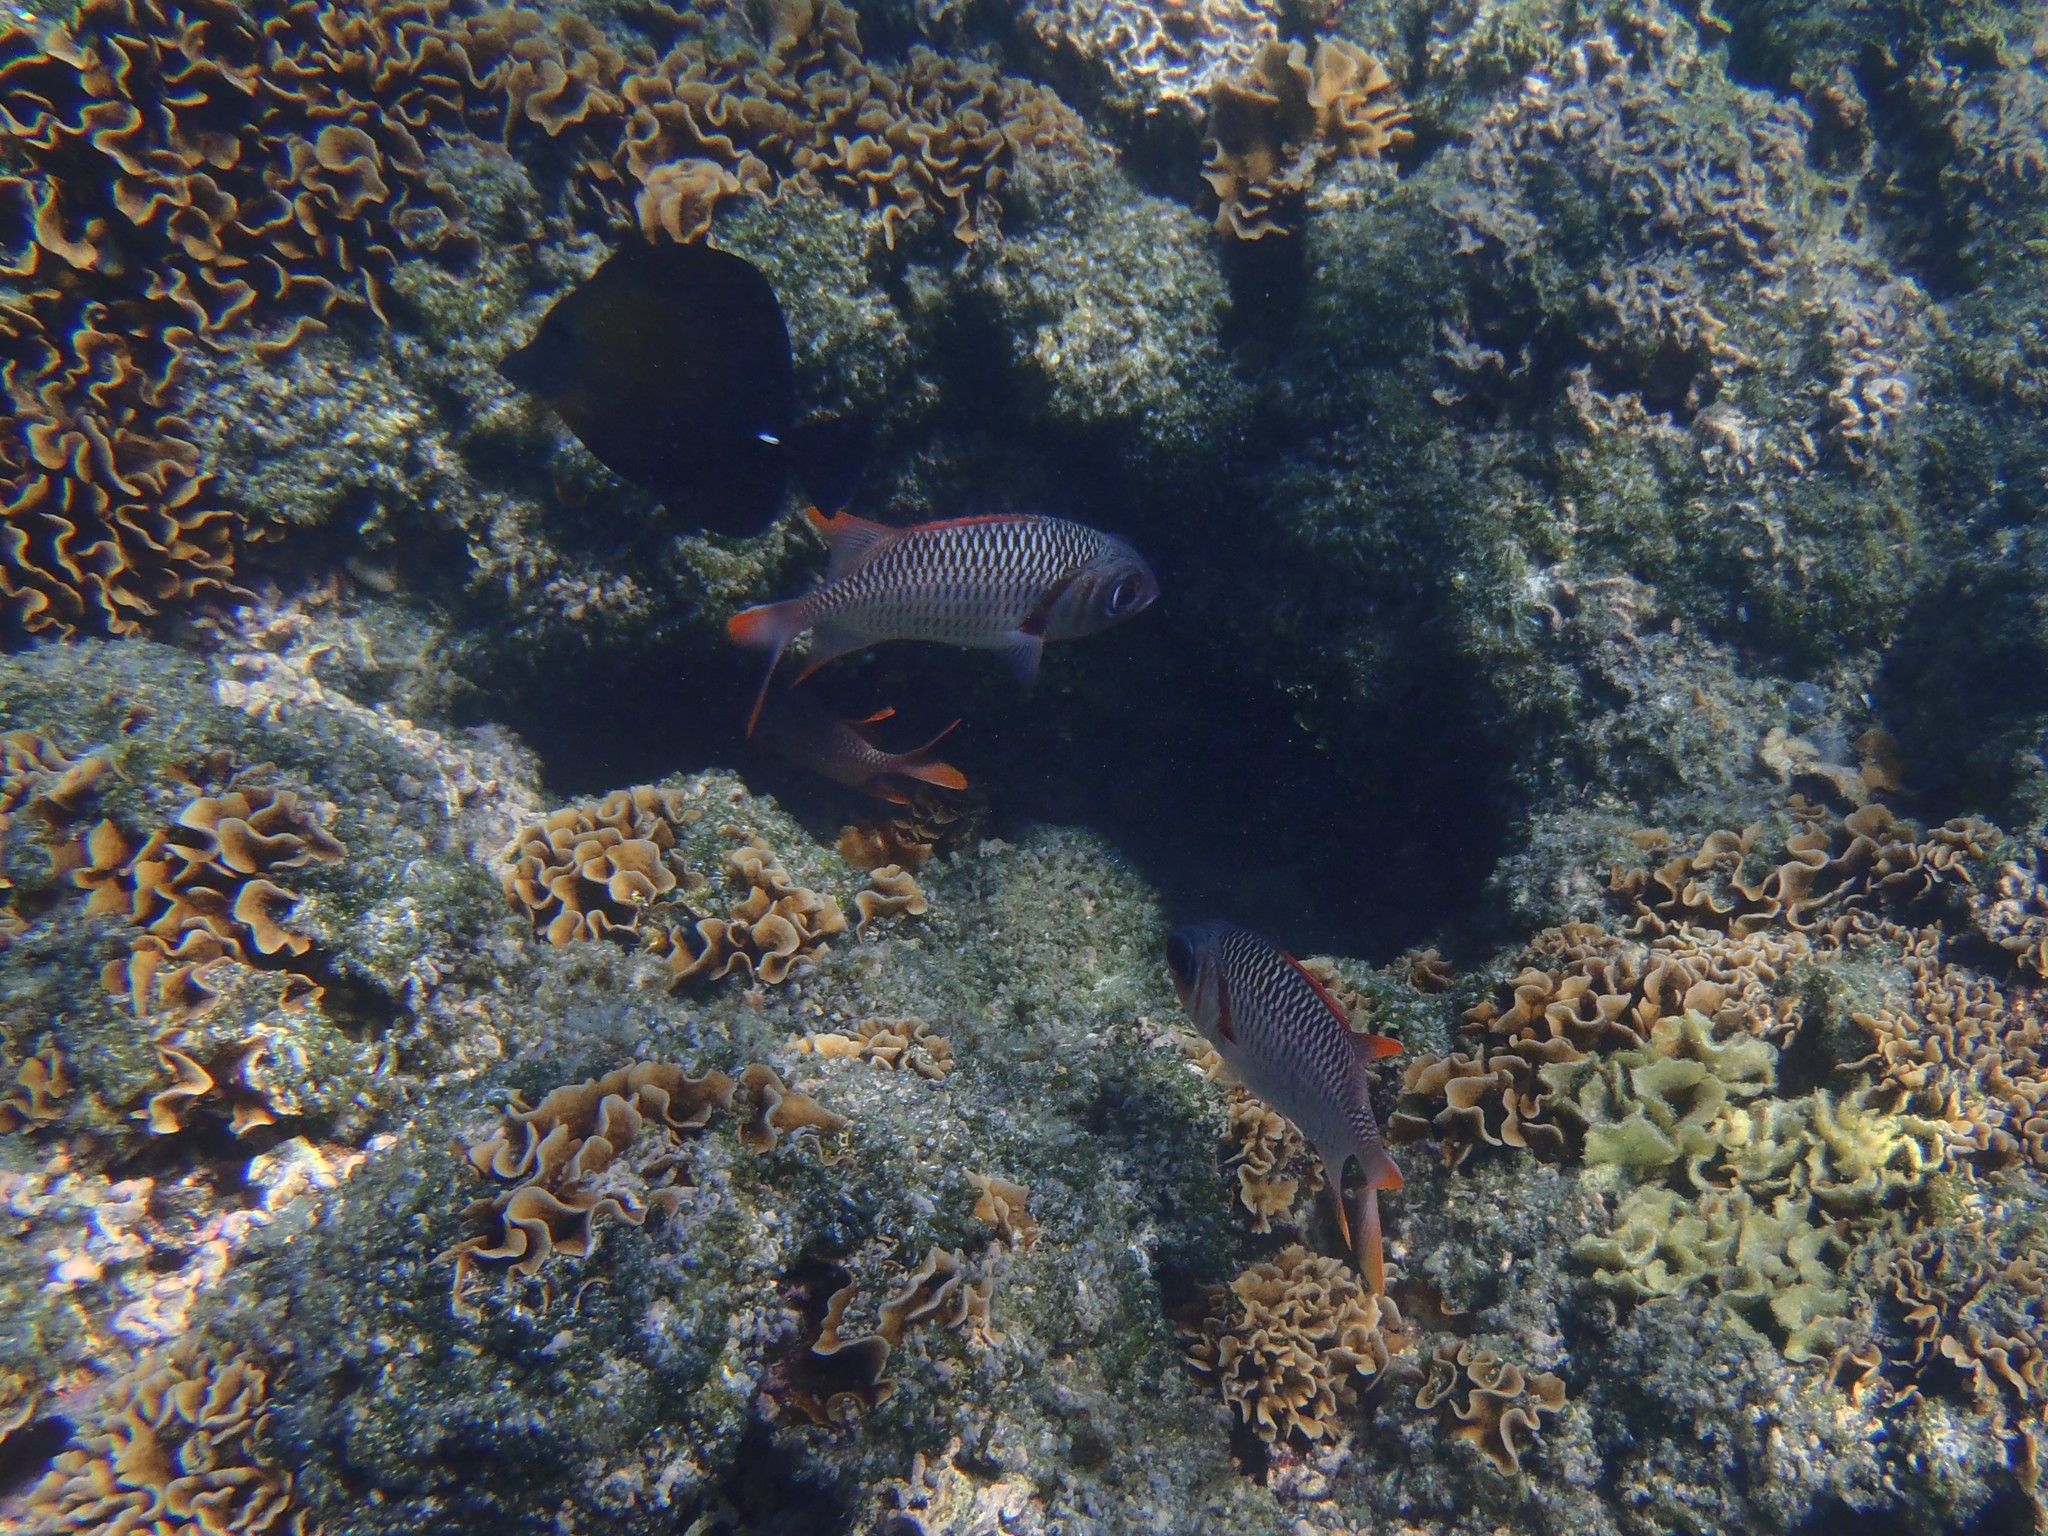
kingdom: Animalia
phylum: Chordata
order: Beryciformes
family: Holocentridae
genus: Myripristis
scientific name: Myripristis violacea
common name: Lattice soldierfish
